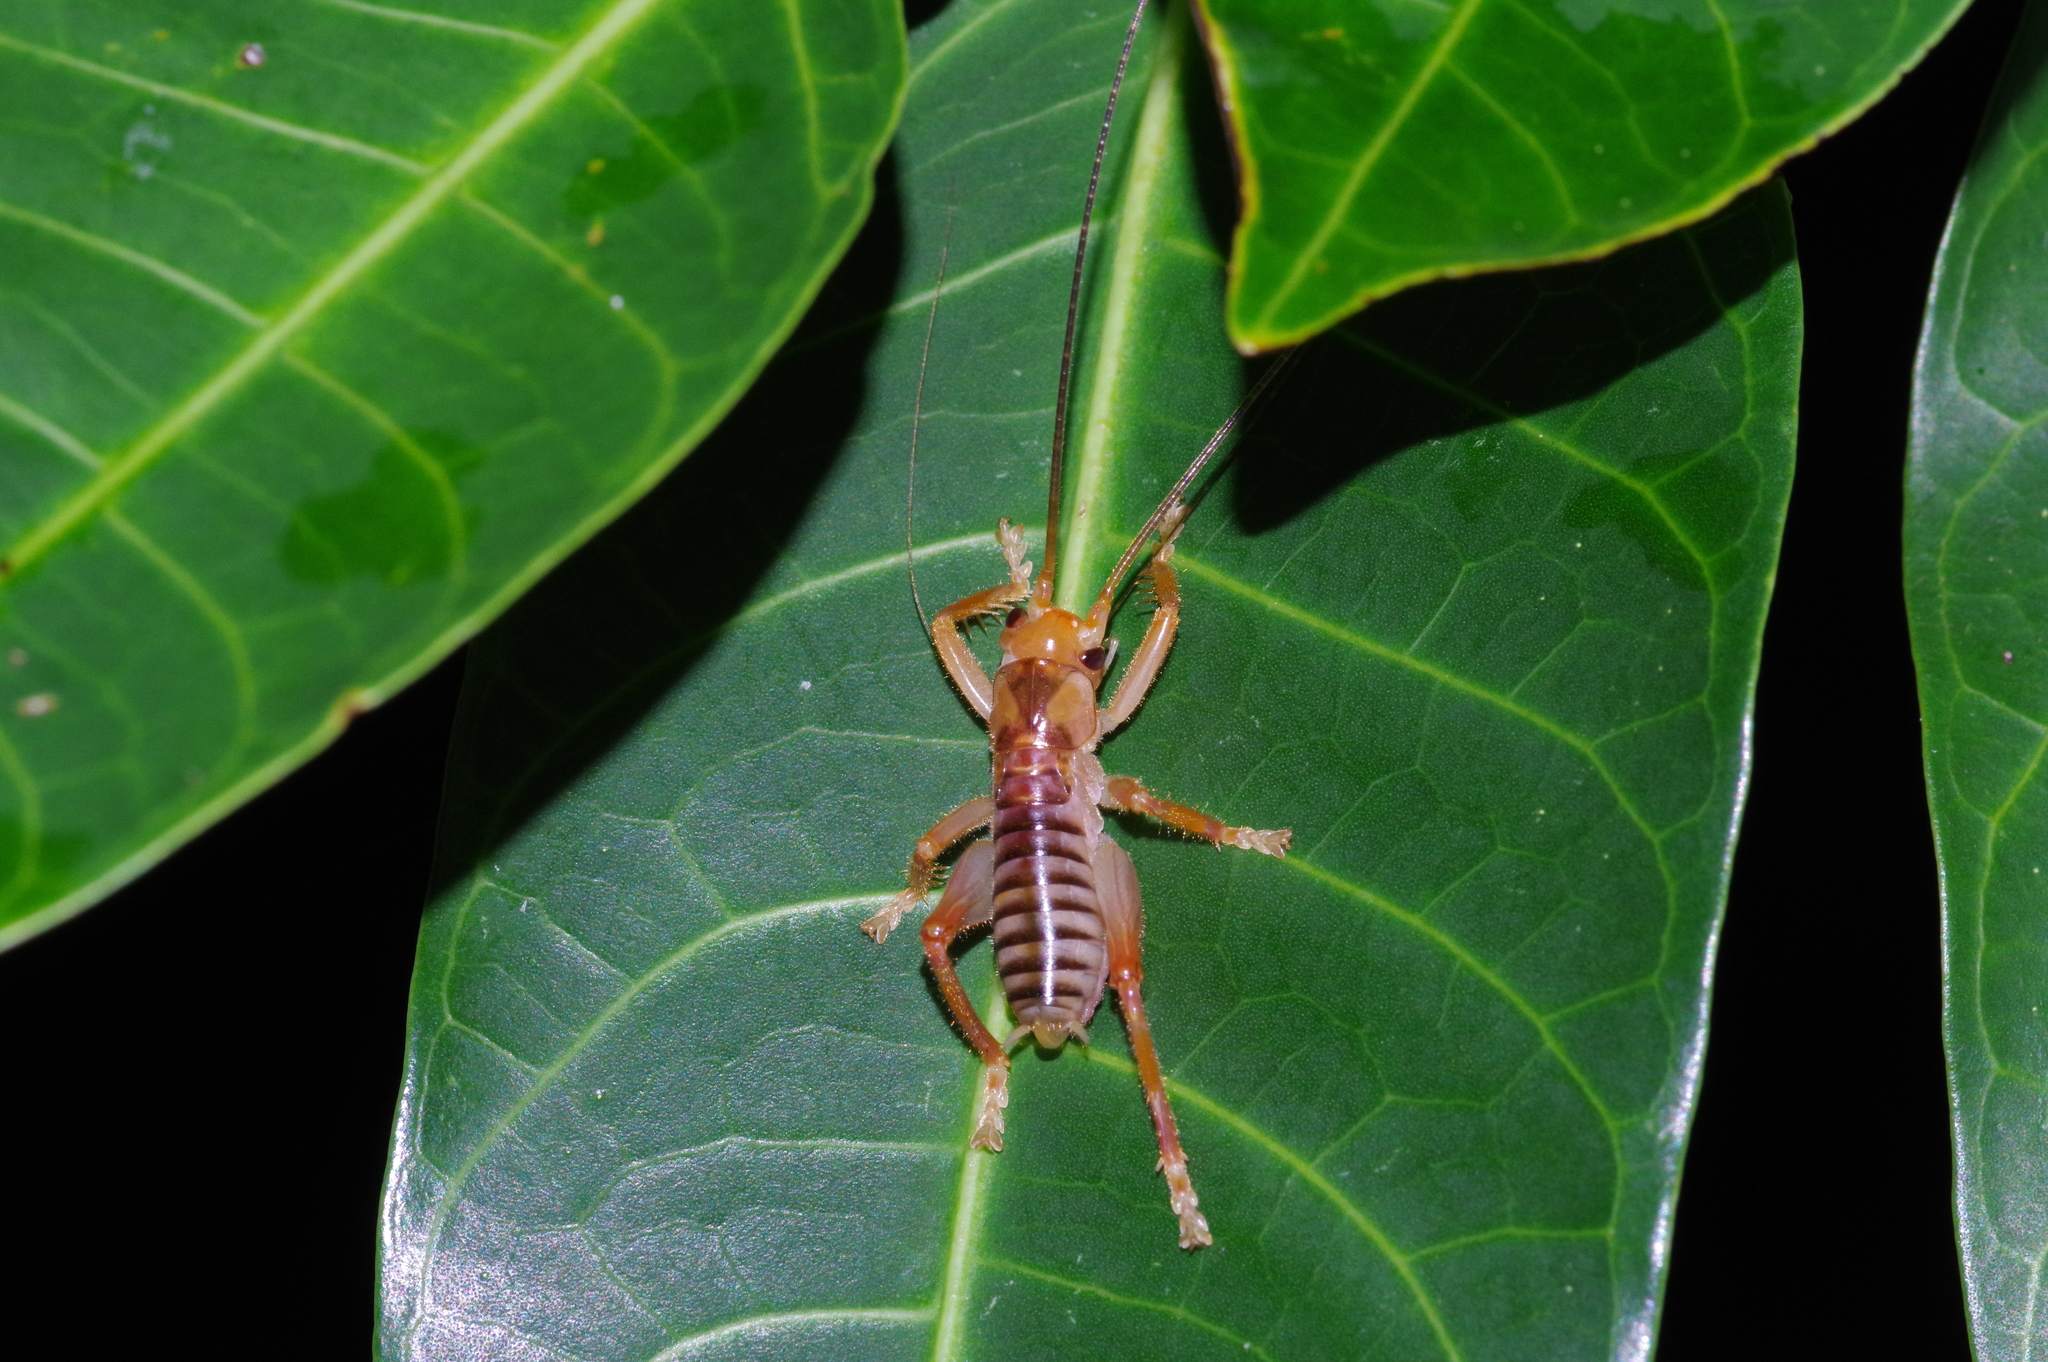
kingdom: Animalia
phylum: Arthropoda
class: Insecta
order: Orthoptera
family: Gryllacrididae
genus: Metriogryllacris
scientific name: Metriogryllacris magna
